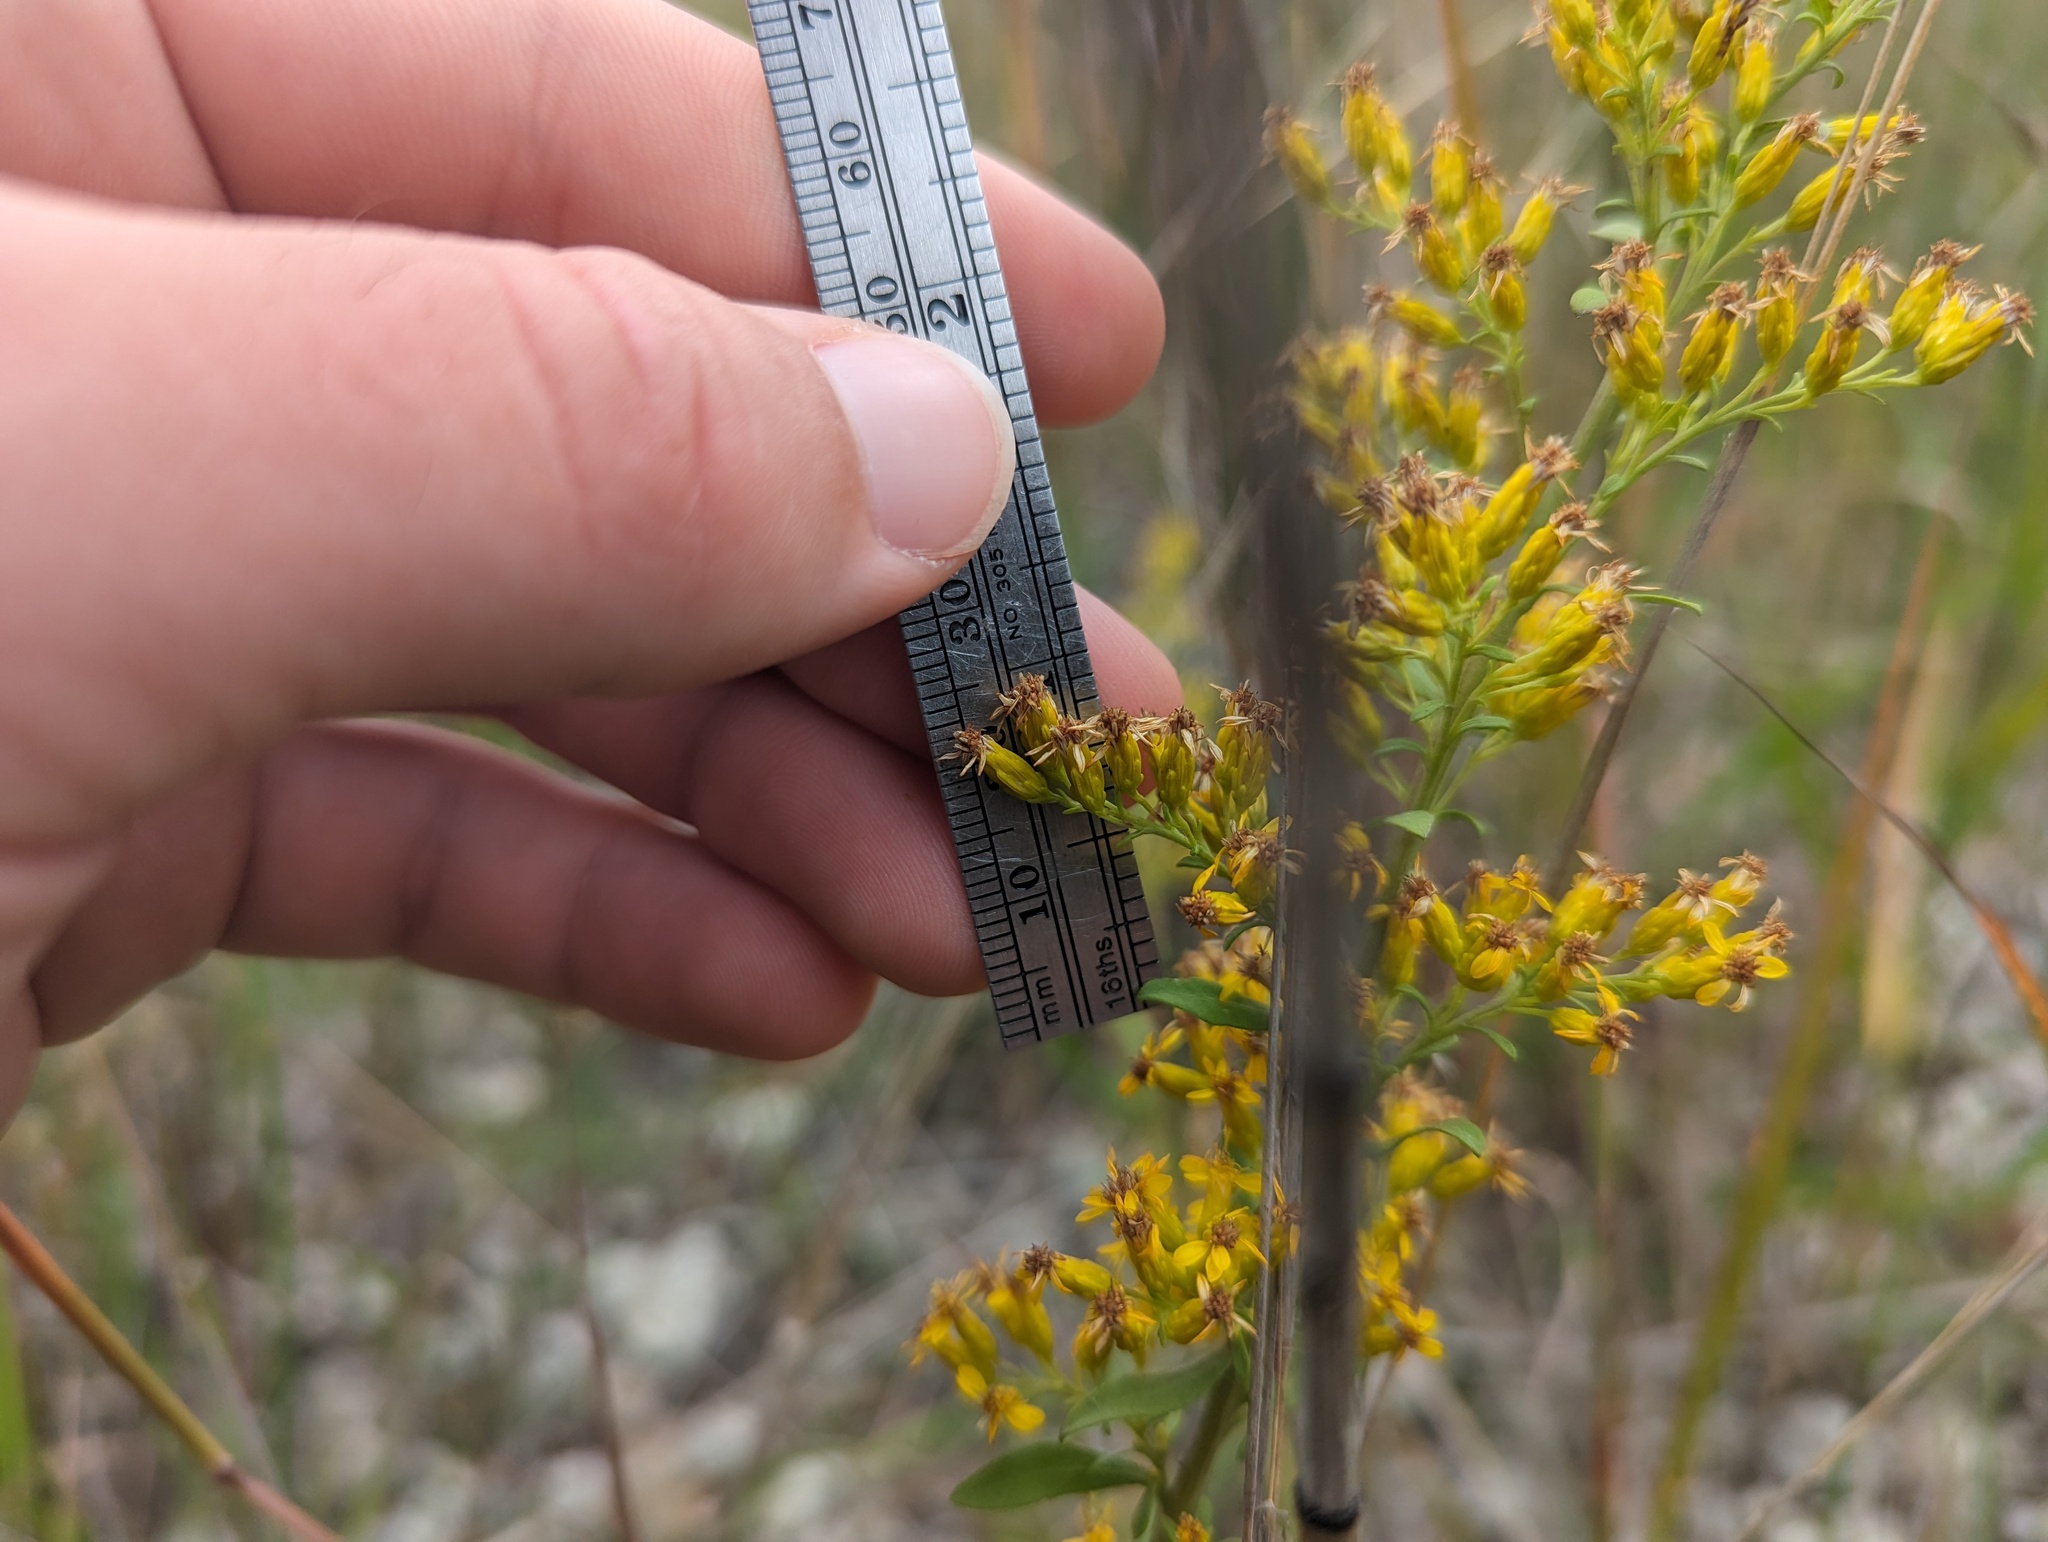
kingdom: Plantae
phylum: Tracheophyta
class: Magnoliopsida
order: Asterales
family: Asteraceae
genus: Solidago
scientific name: Solidago nemoralis
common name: Grey goldenrod
